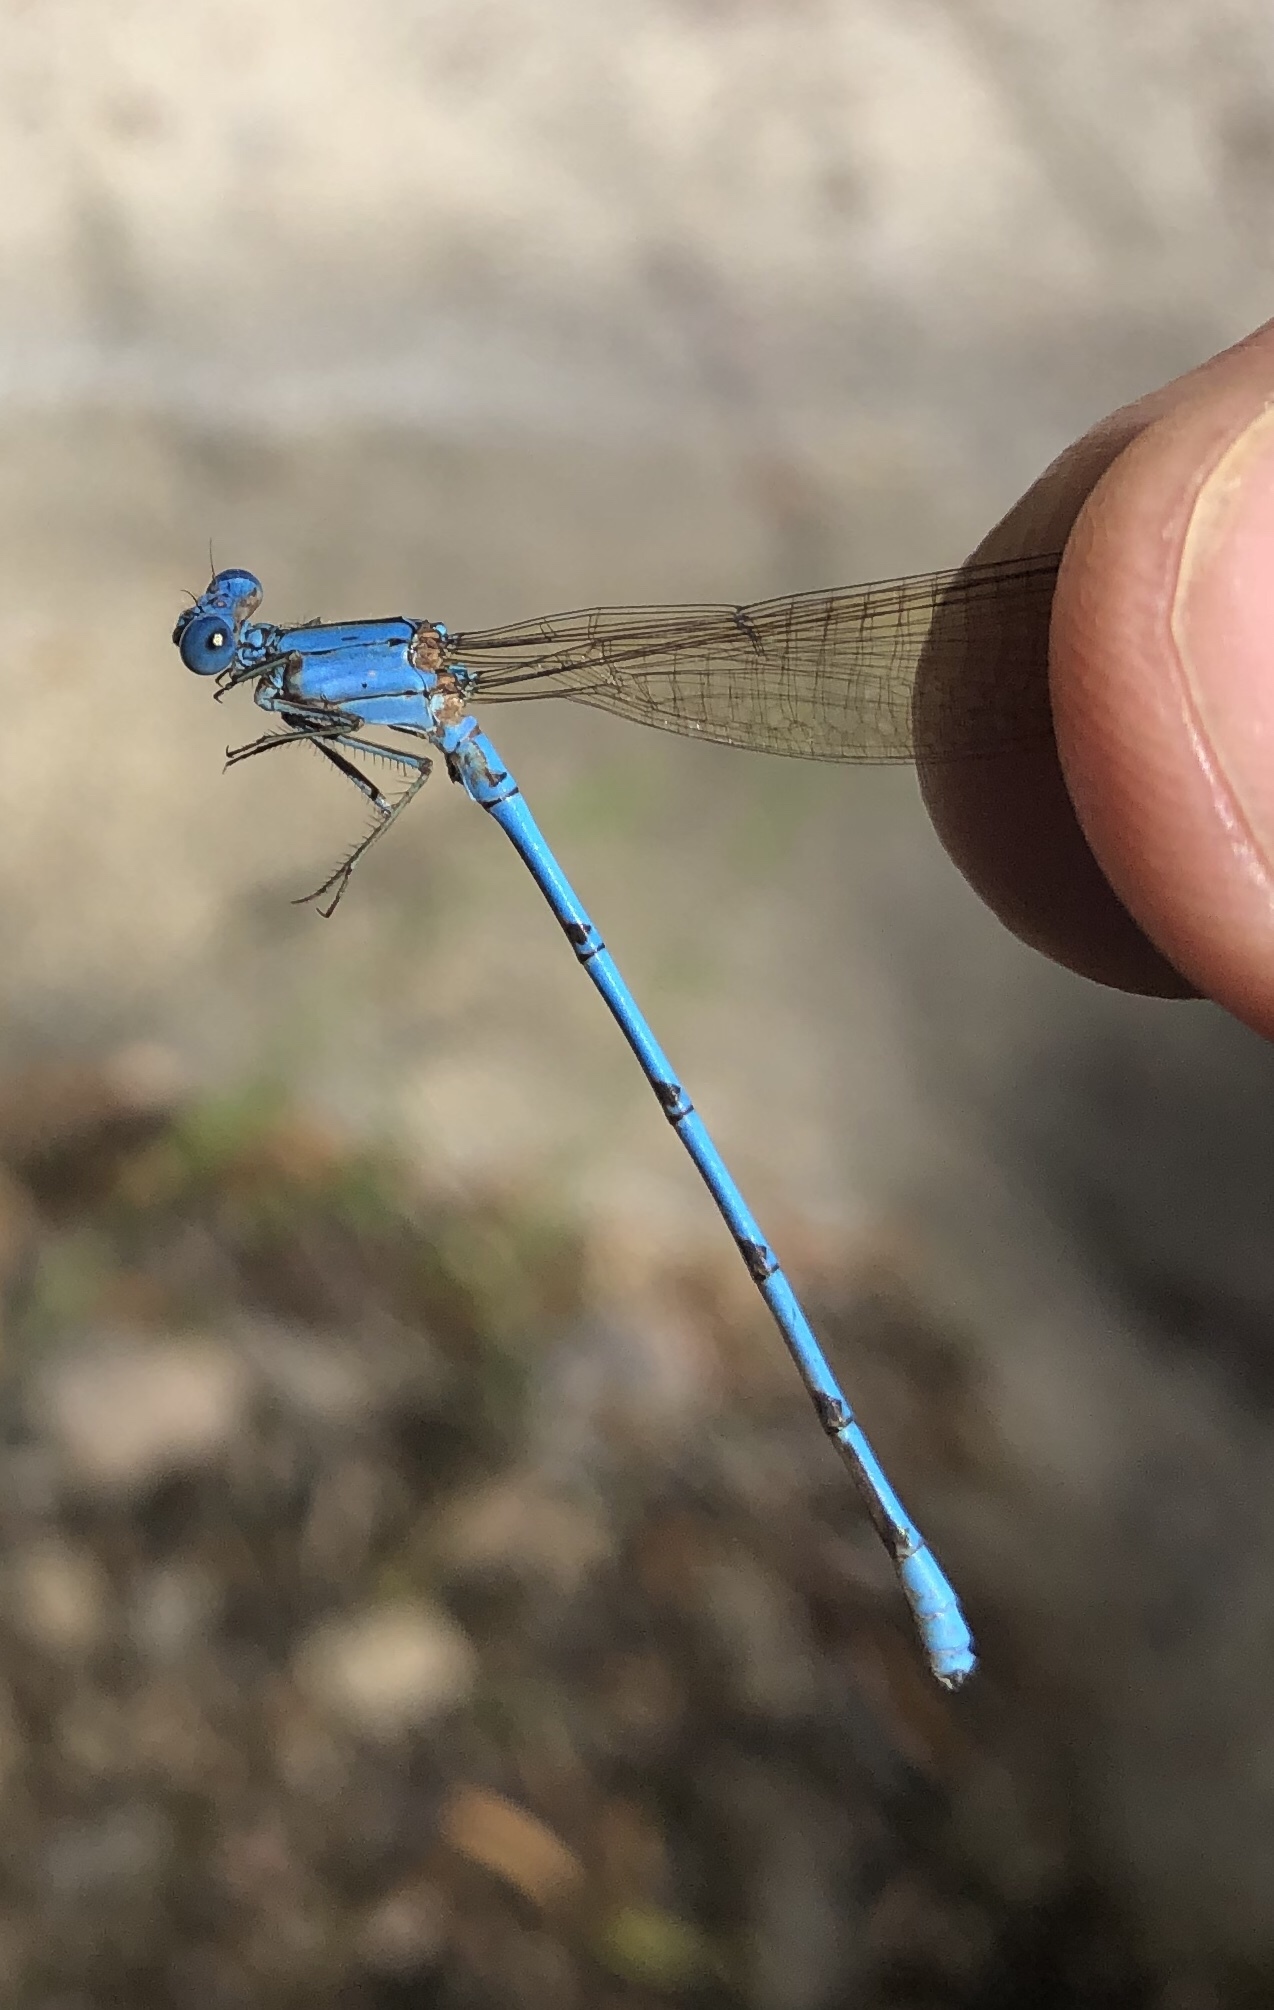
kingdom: Animalia
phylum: Arthropoda
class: Insecta
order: Odonata
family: Coenagrionidae
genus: Argia
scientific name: Argia anceps
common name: Cerulean dancer
